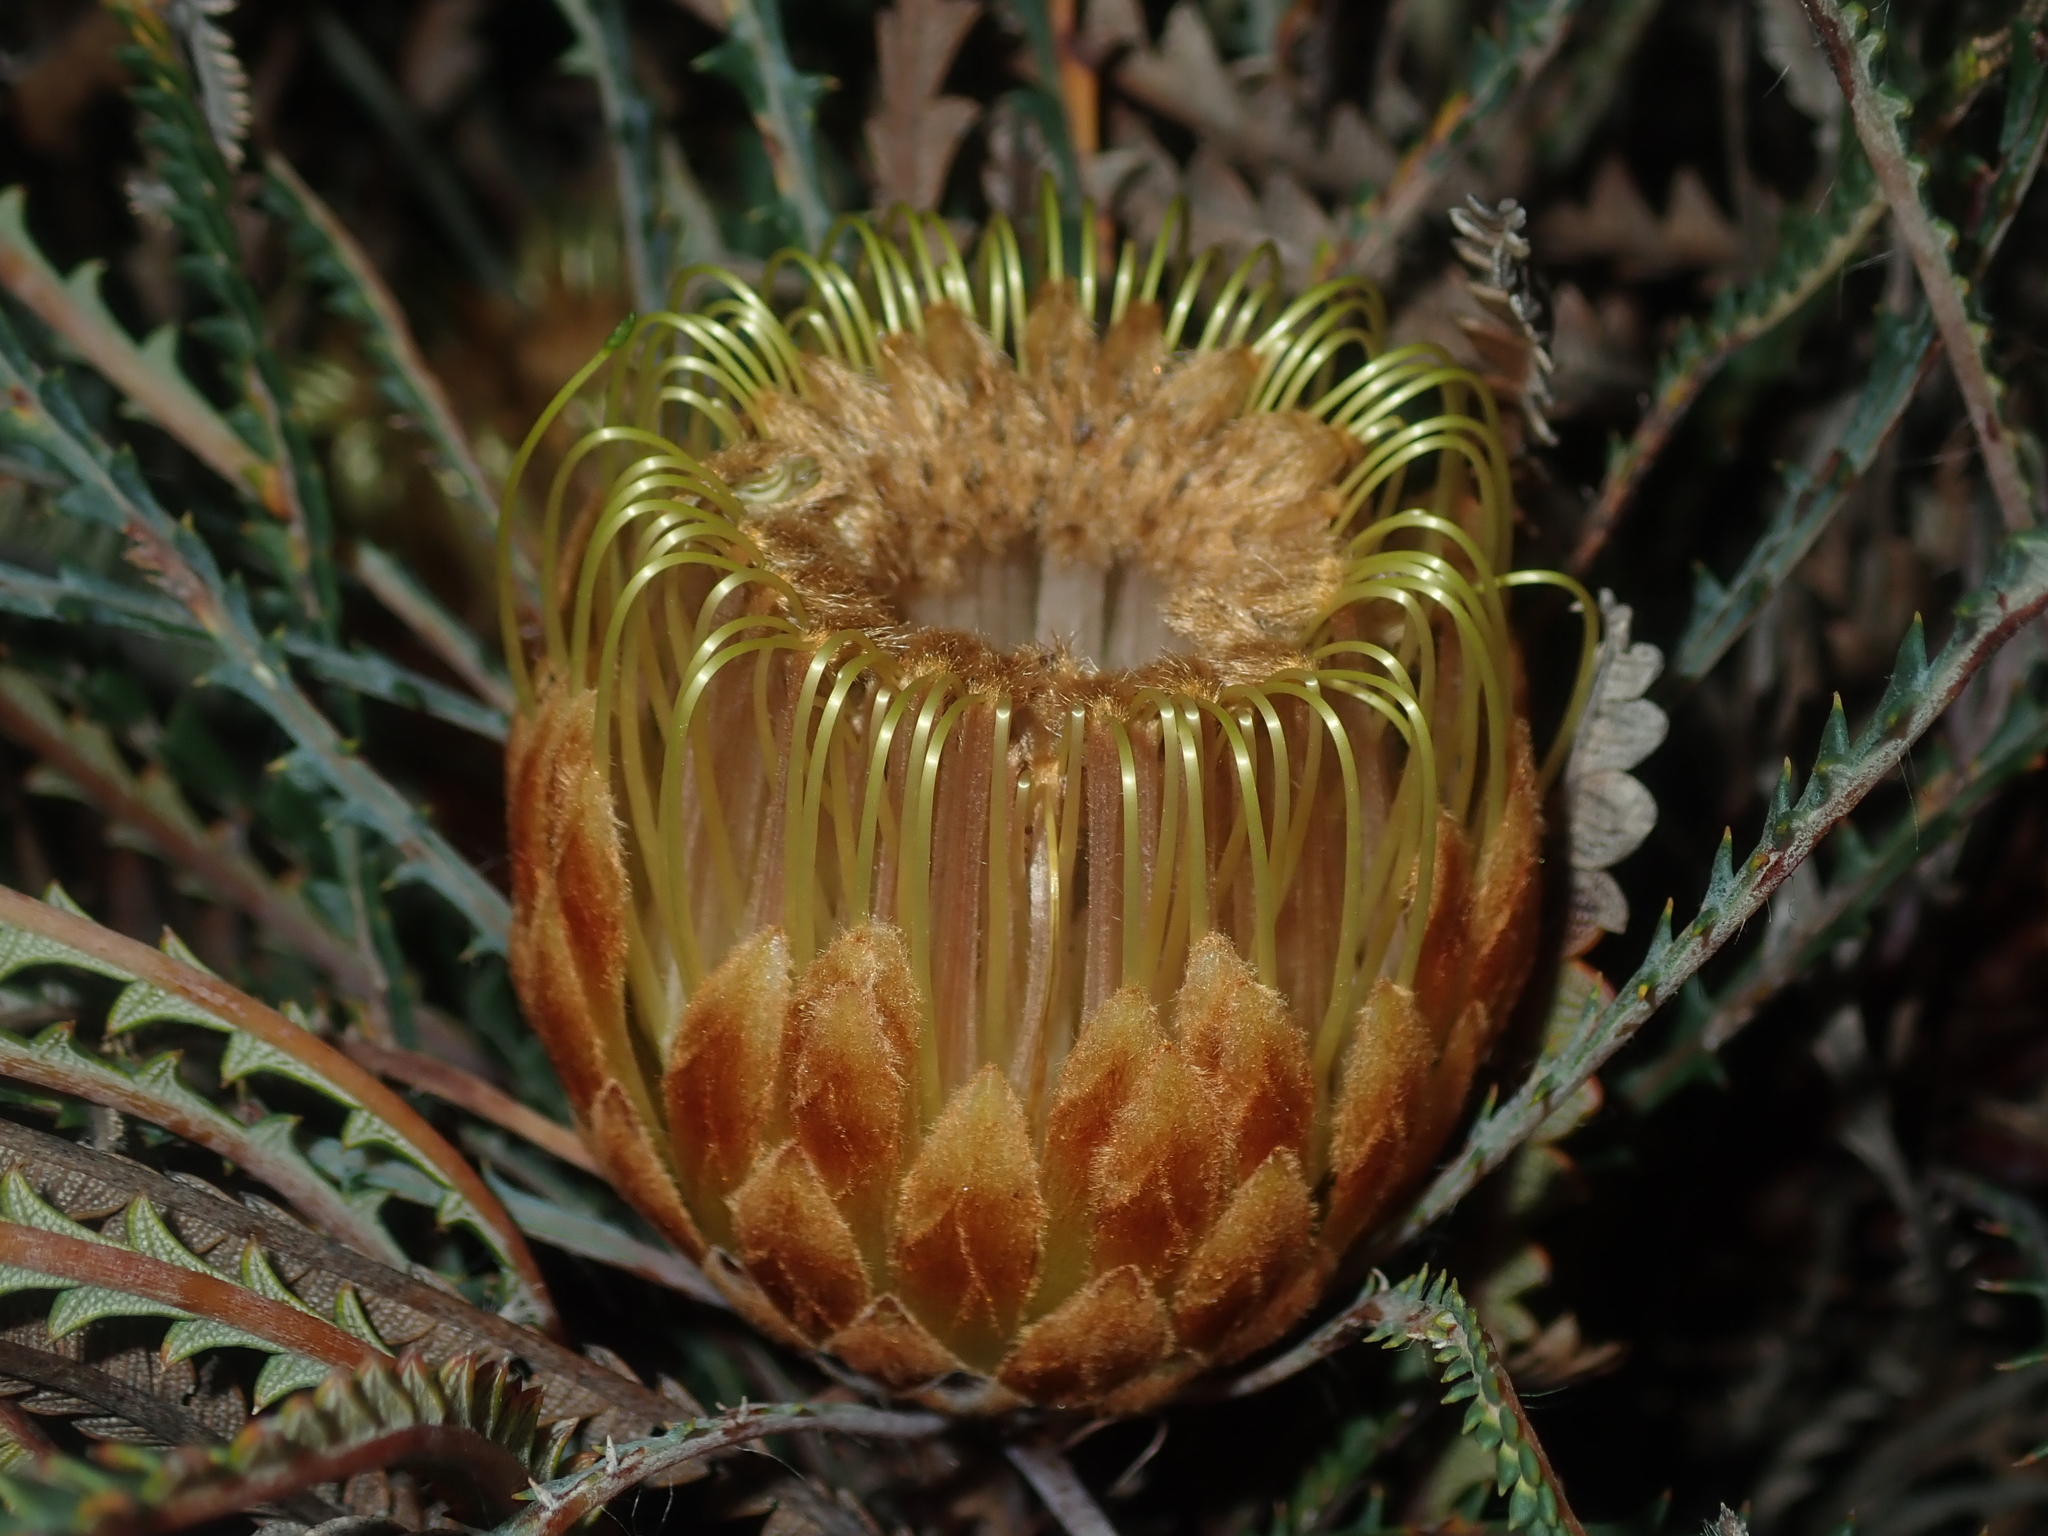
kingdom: Plantae
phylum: Tracheophyta
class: Magnoliopsida
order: Proteales
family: Proteaceae
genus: Banksia
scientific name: Banksia dallanneyi
